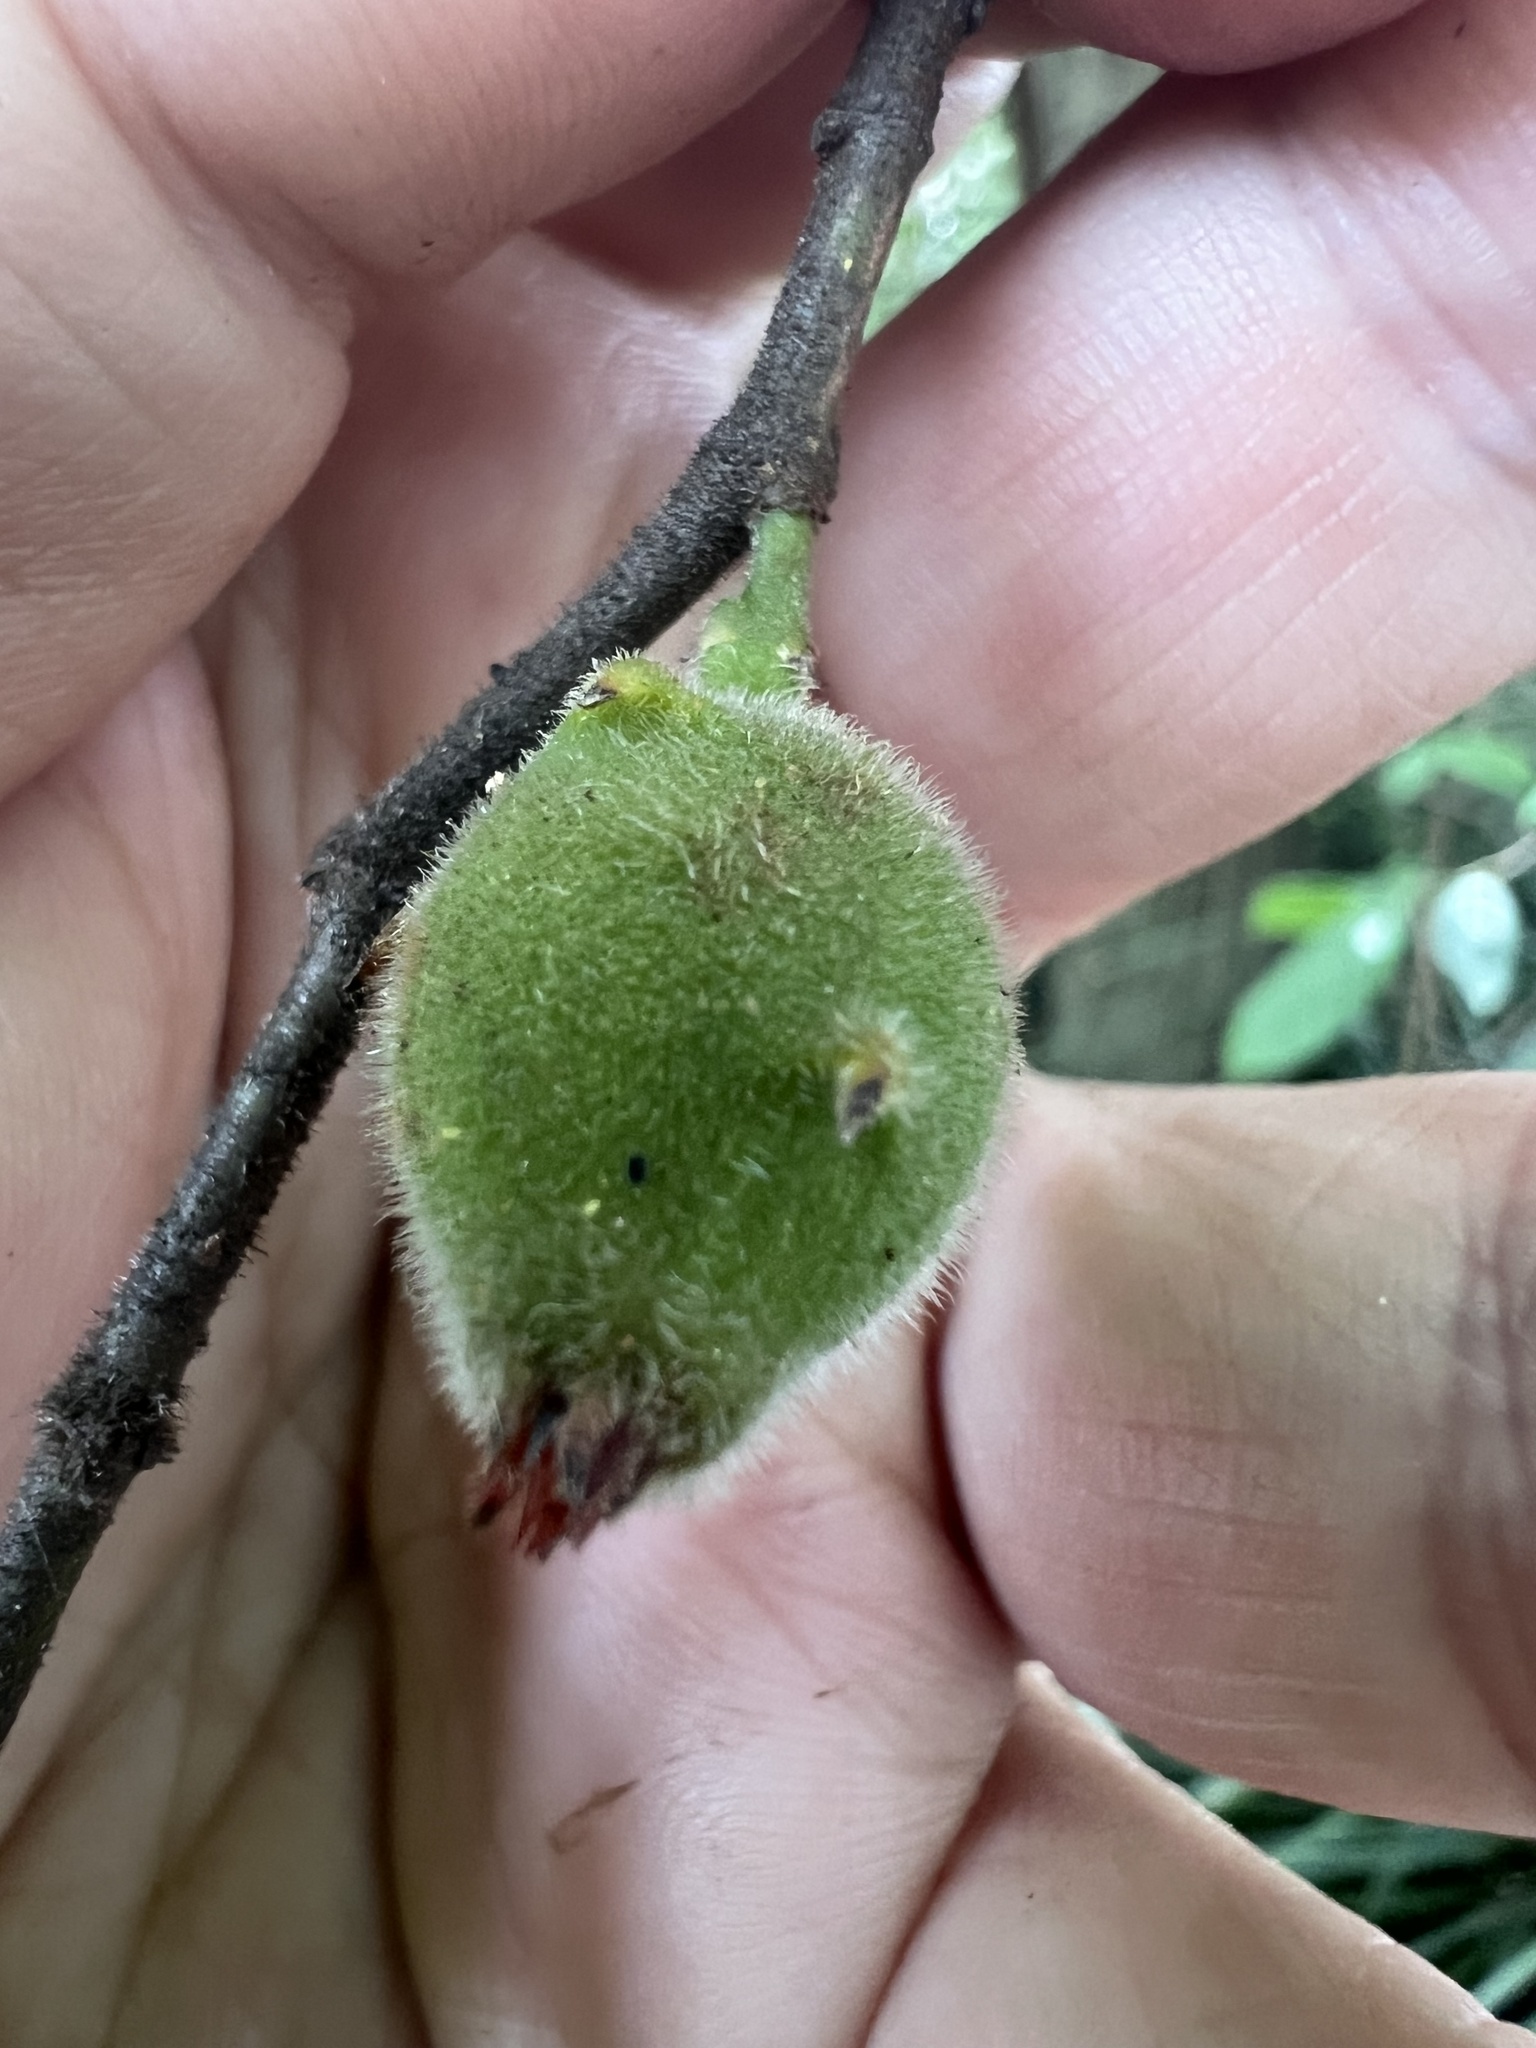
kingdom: Plantae
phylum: Tracheophyta
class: Magnoliopsida
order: Rosales
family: Moraceae
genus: Ficus
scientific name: Ficus coronata
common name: Creek sandpaper fig
